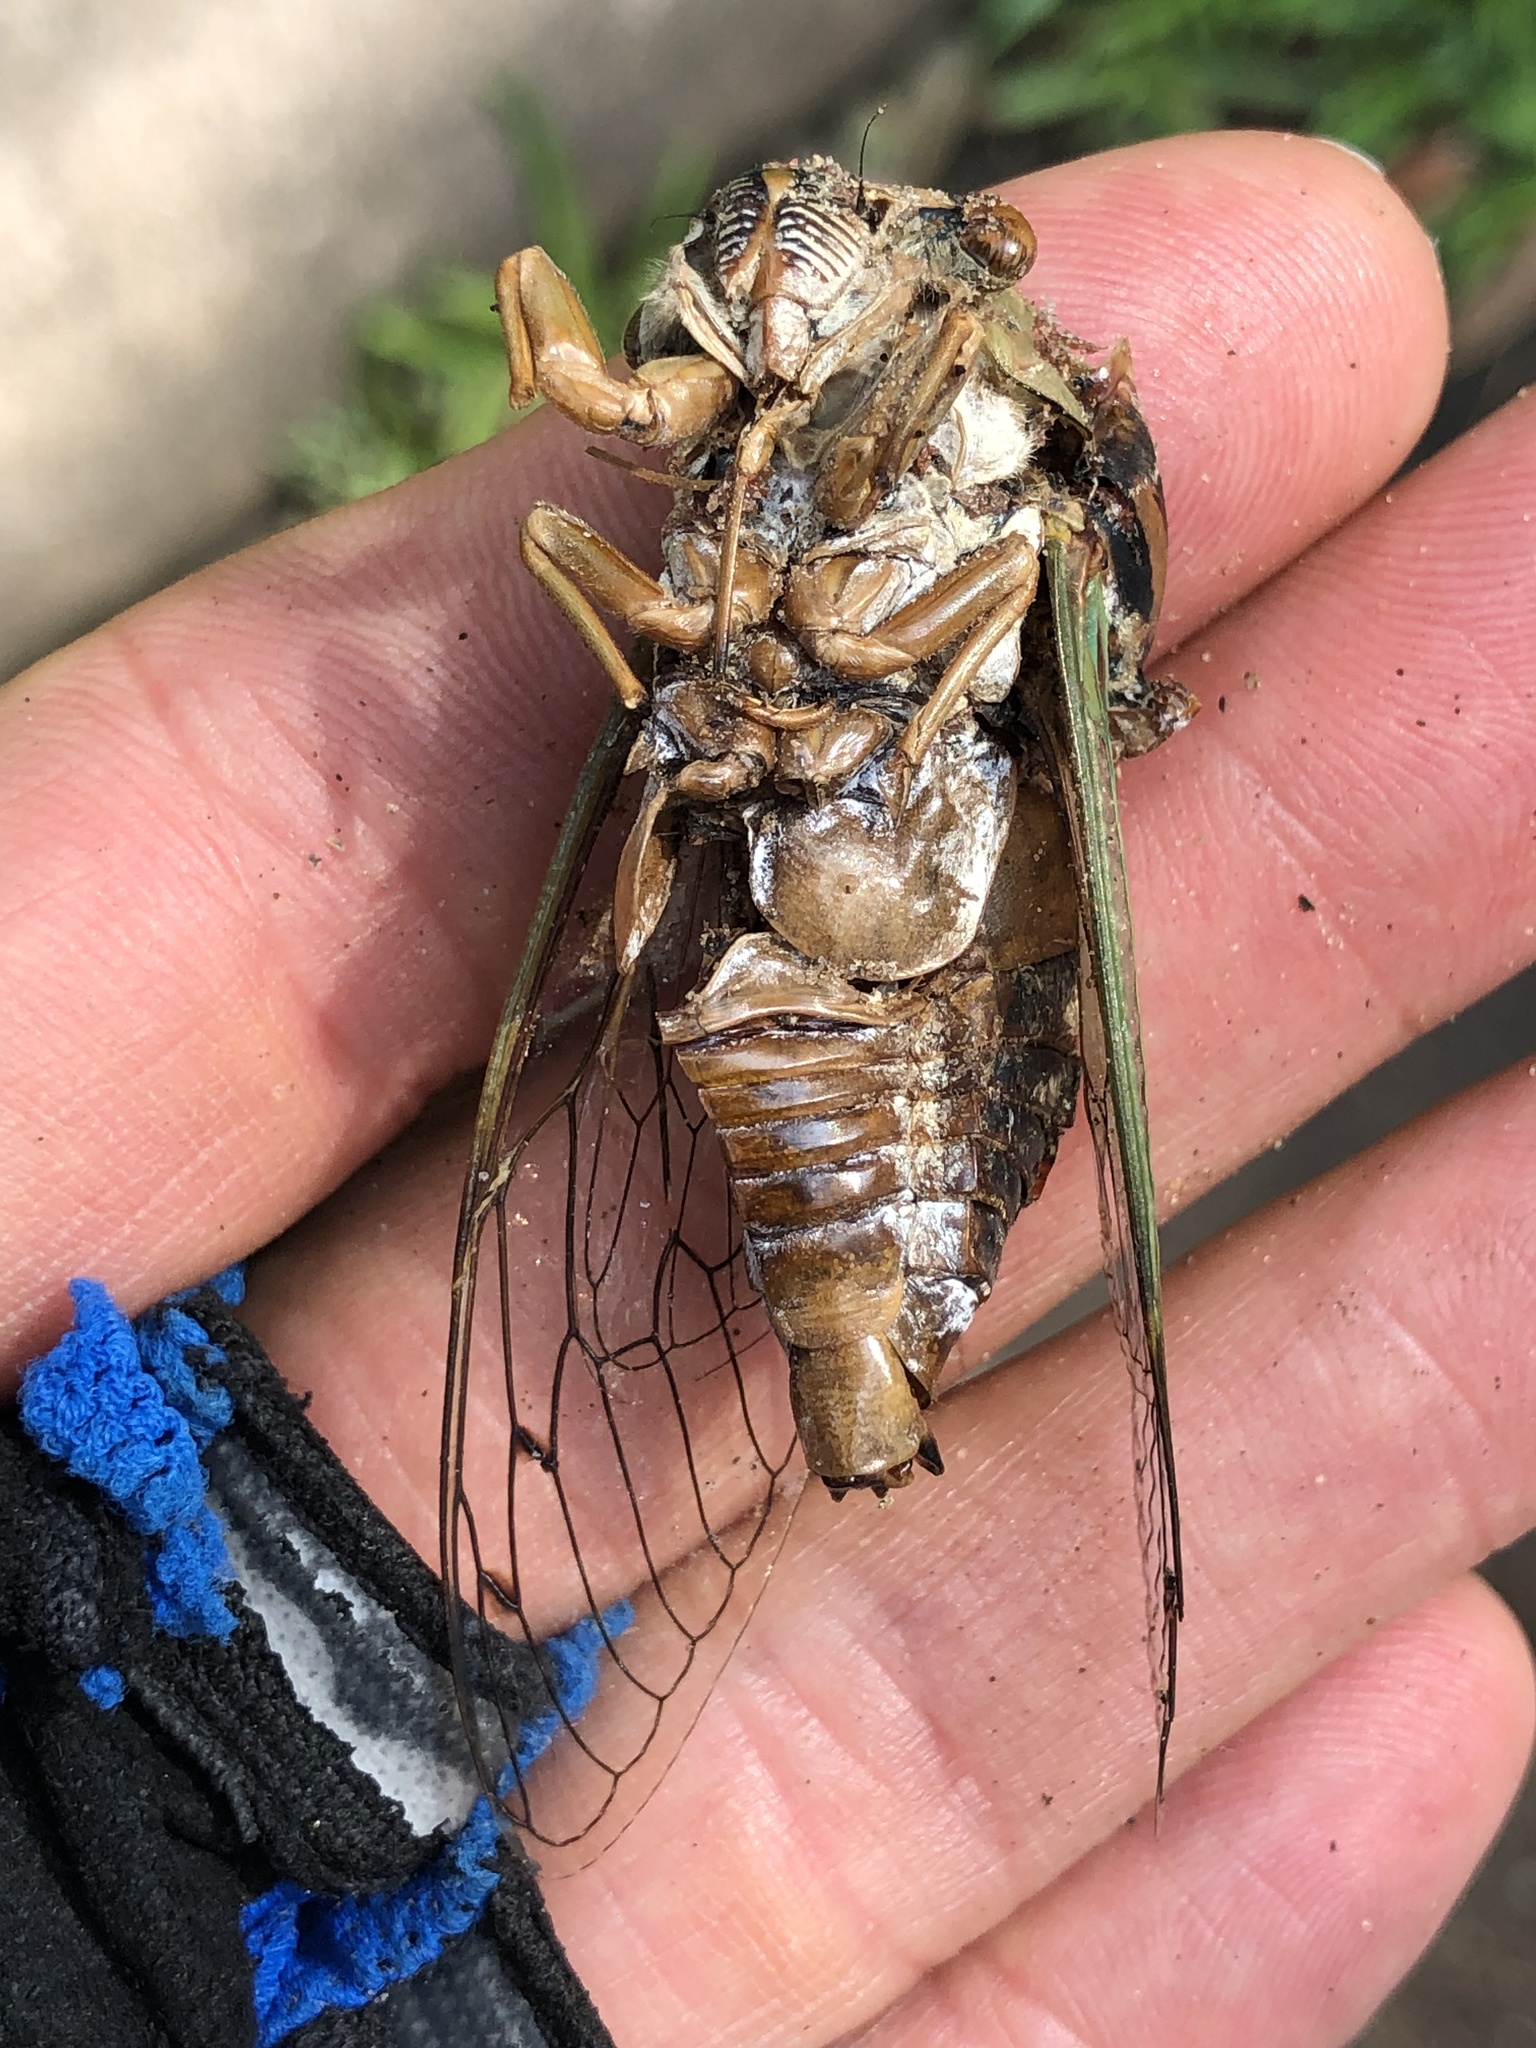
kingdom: Animalia
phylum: Arthropoda
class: Insecta
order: Hemiptera
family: Cicadidae
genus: Megatibicen
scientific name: Megatibicen resh
